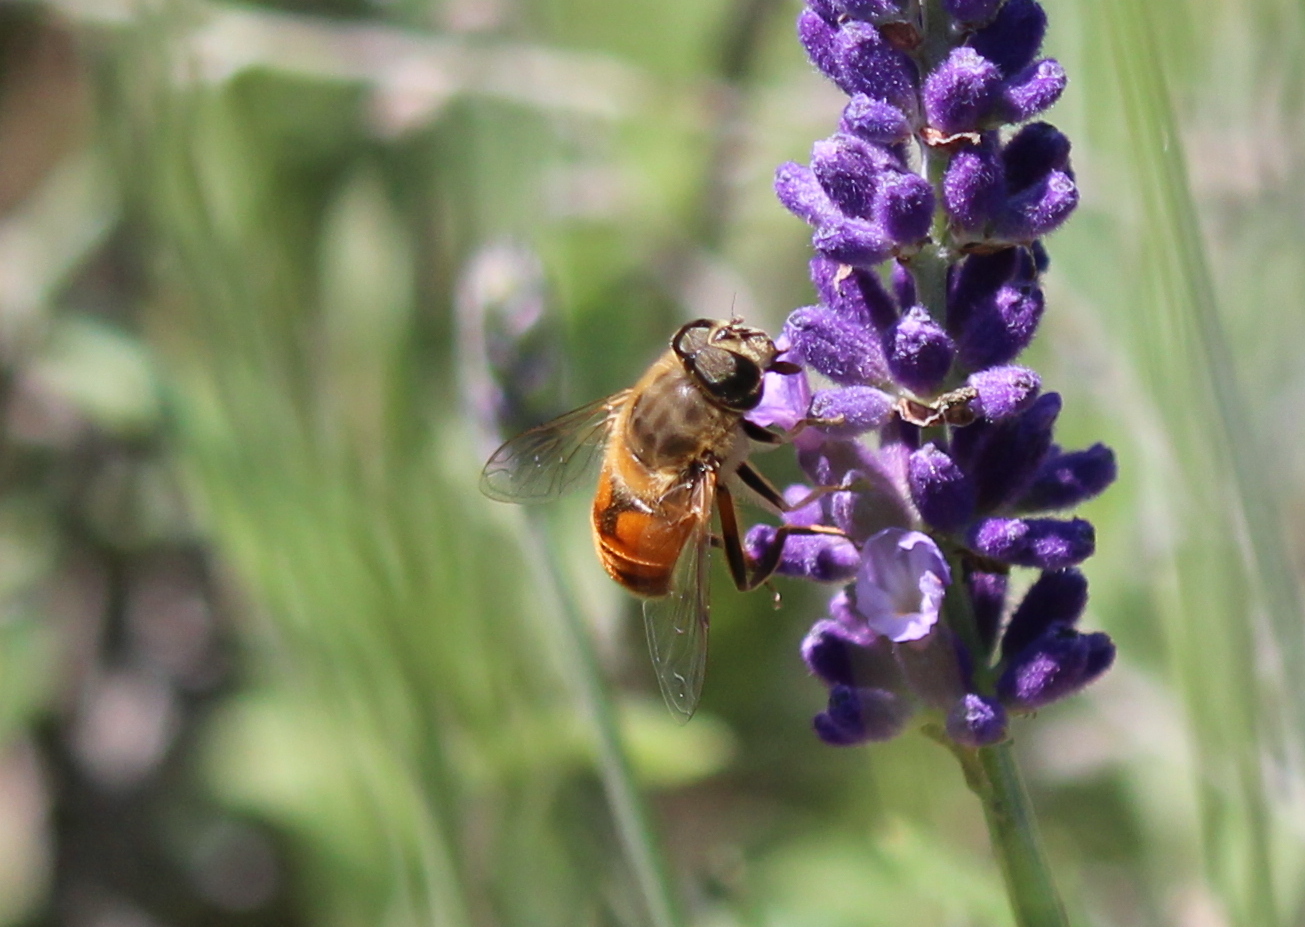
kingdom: Animalia
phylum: Arthropoda
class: Insecta
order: Diptera
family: Syrphidae
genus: Eristalis
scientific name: Eristalis tenax
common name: Drone fly
